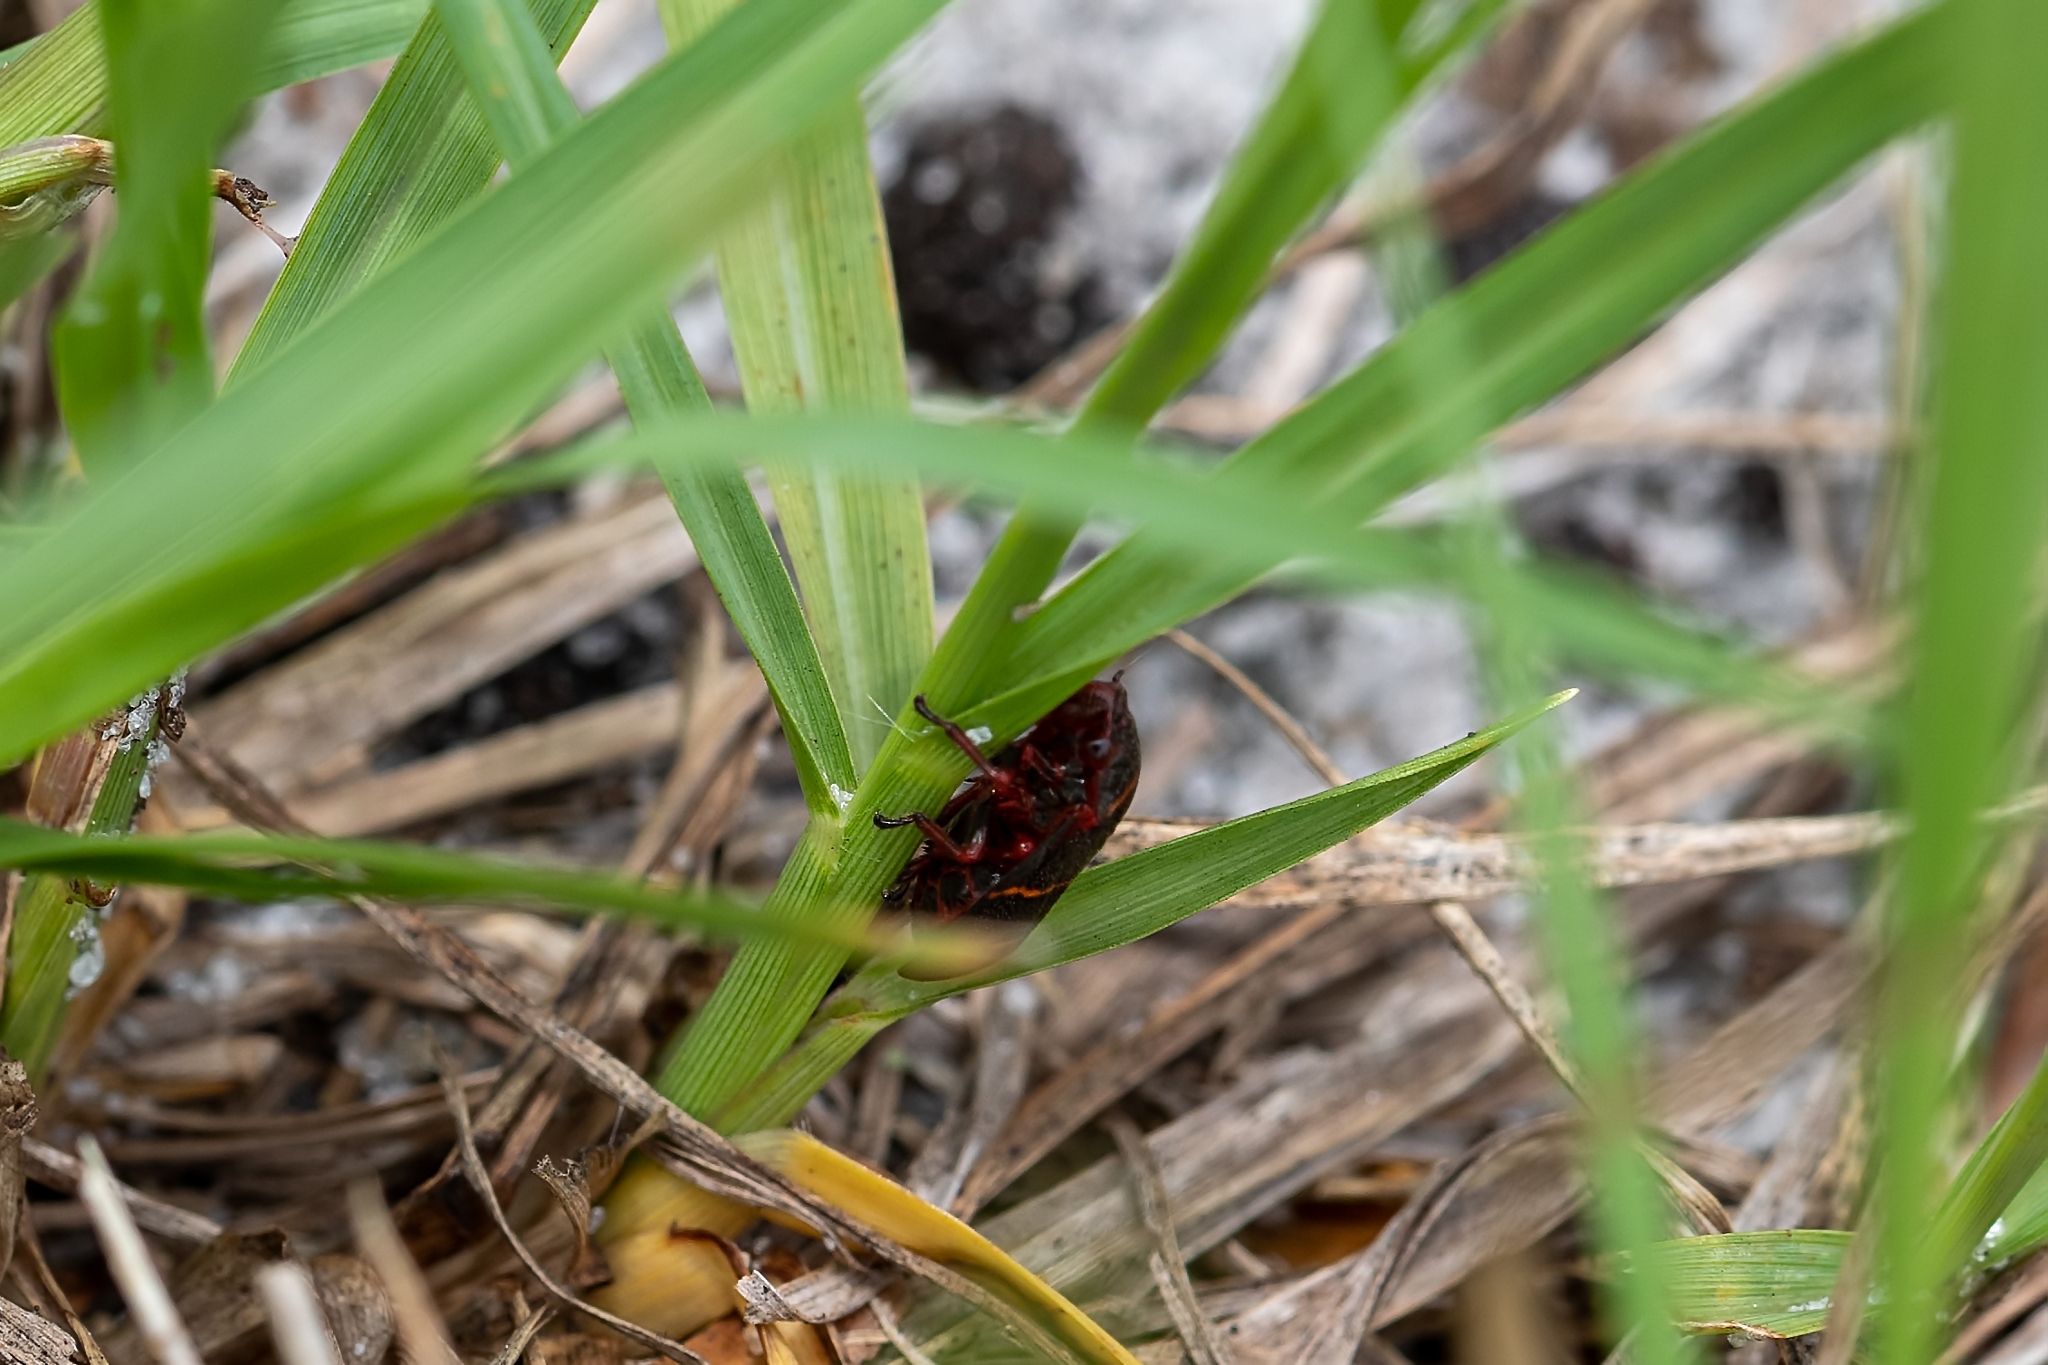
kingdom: Animalia
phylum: Arthropoda
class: Insecta
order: Hemiptera
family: Cercopidae
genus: Prosapia
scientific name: Prosapia bicincta
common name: Twolined spittlebug
